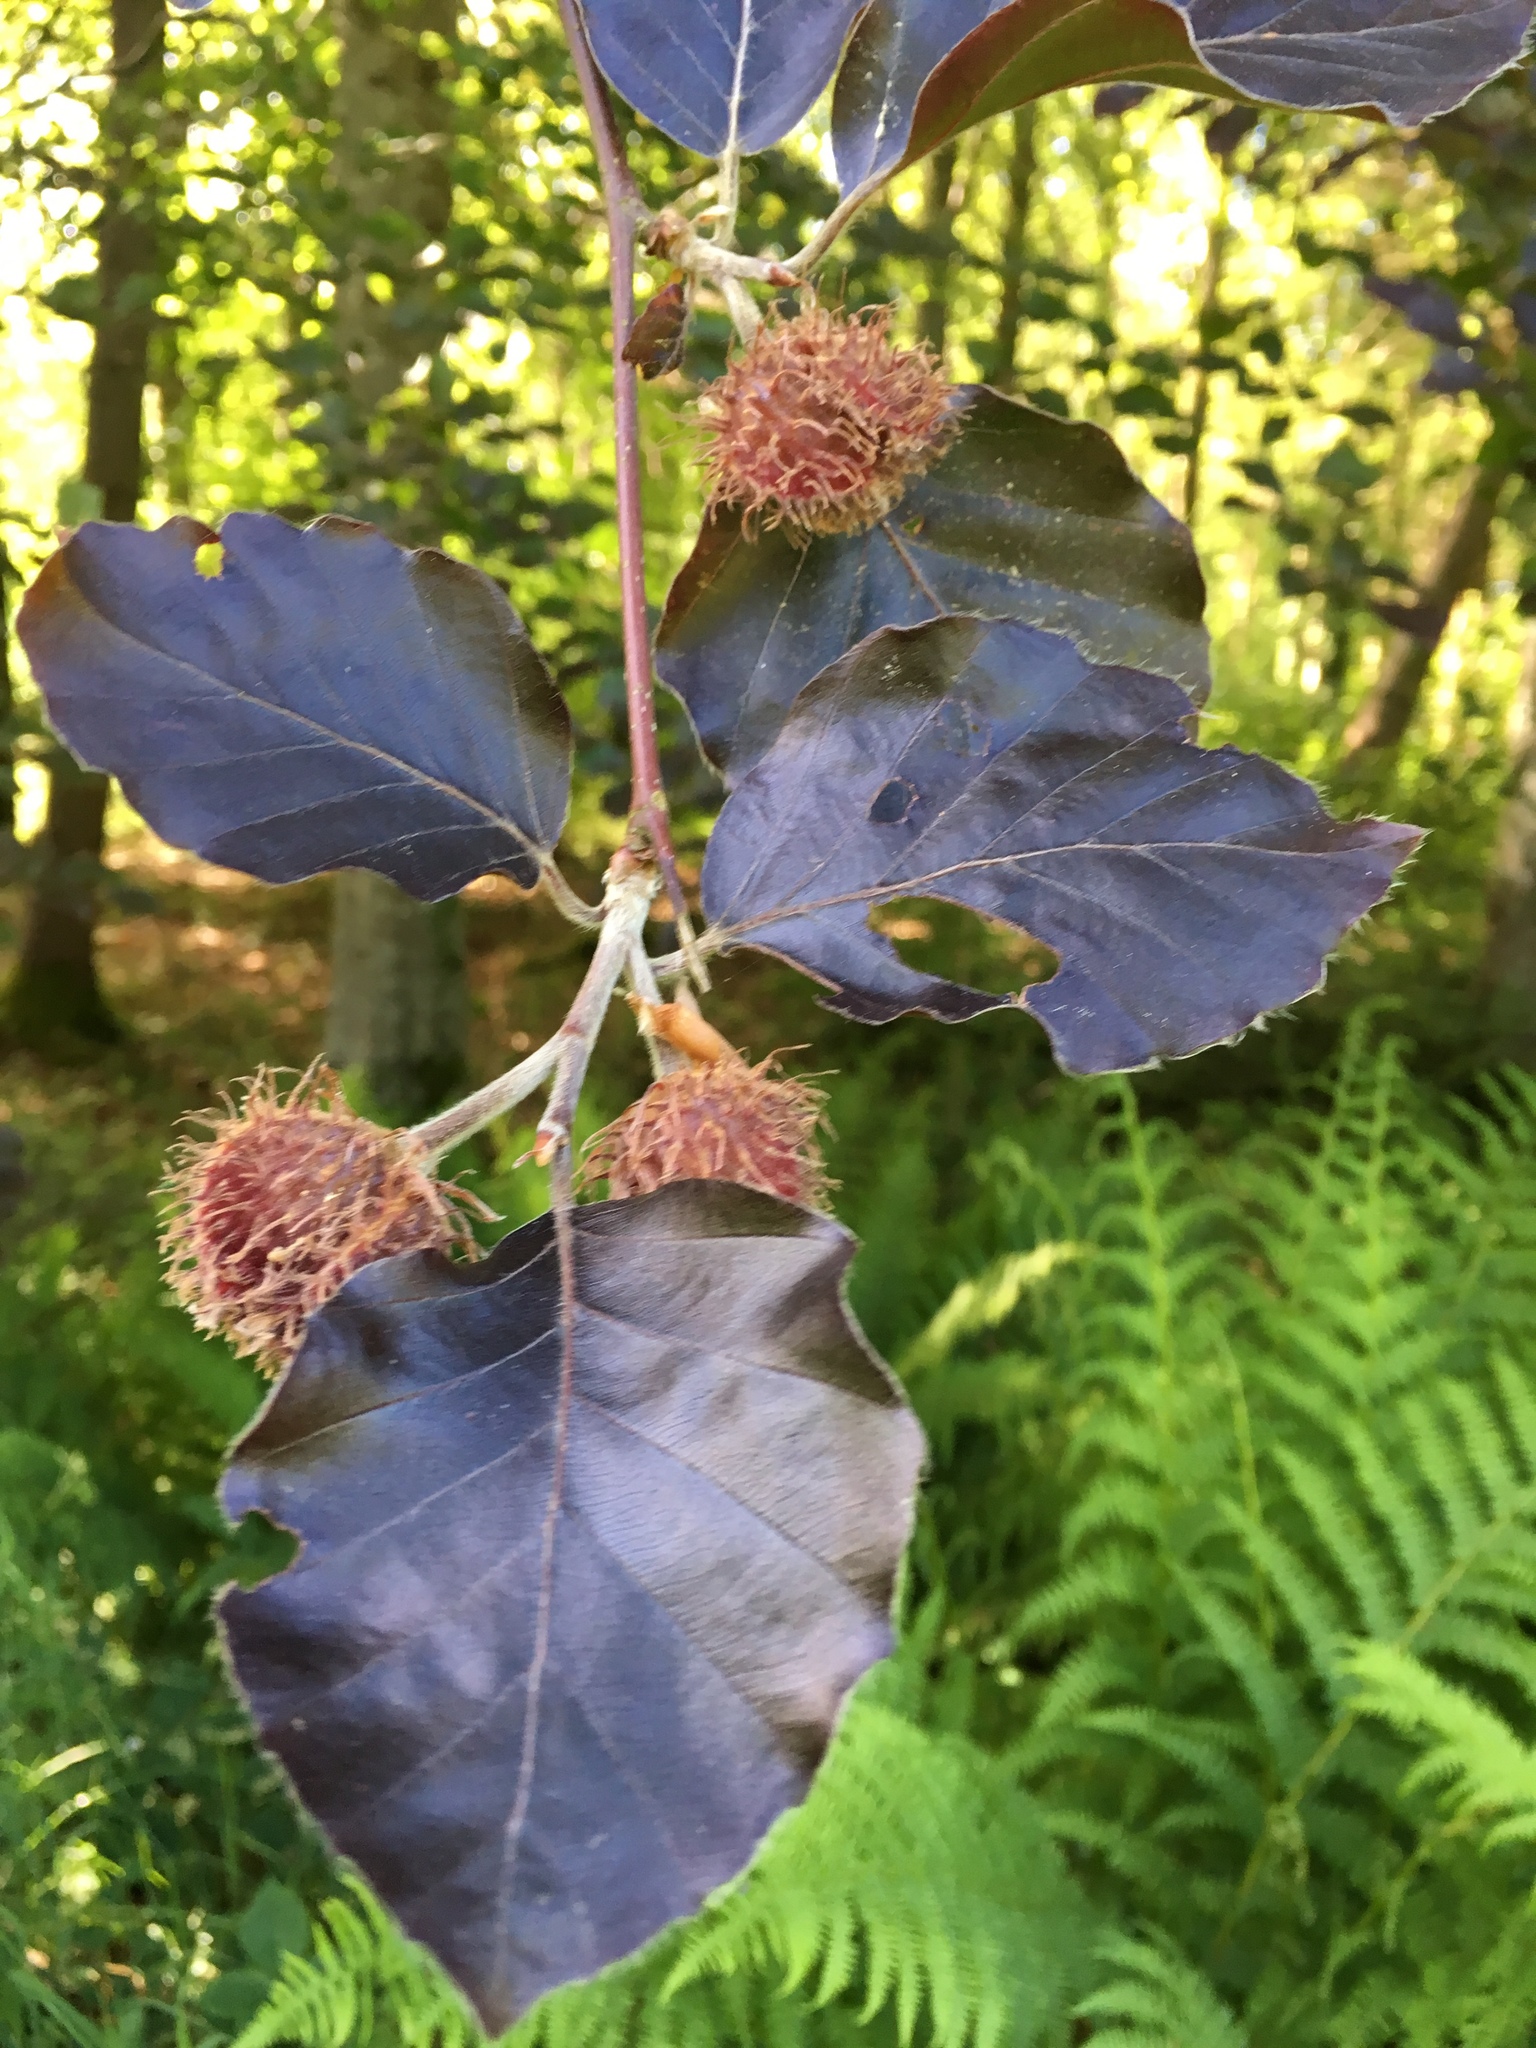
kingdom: Plantae
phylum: Tracheophyta
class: Magnoliopsida
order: Fagales
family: Fagaceae
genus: Fagus
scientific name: Fagus sylvatica
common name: Beech
